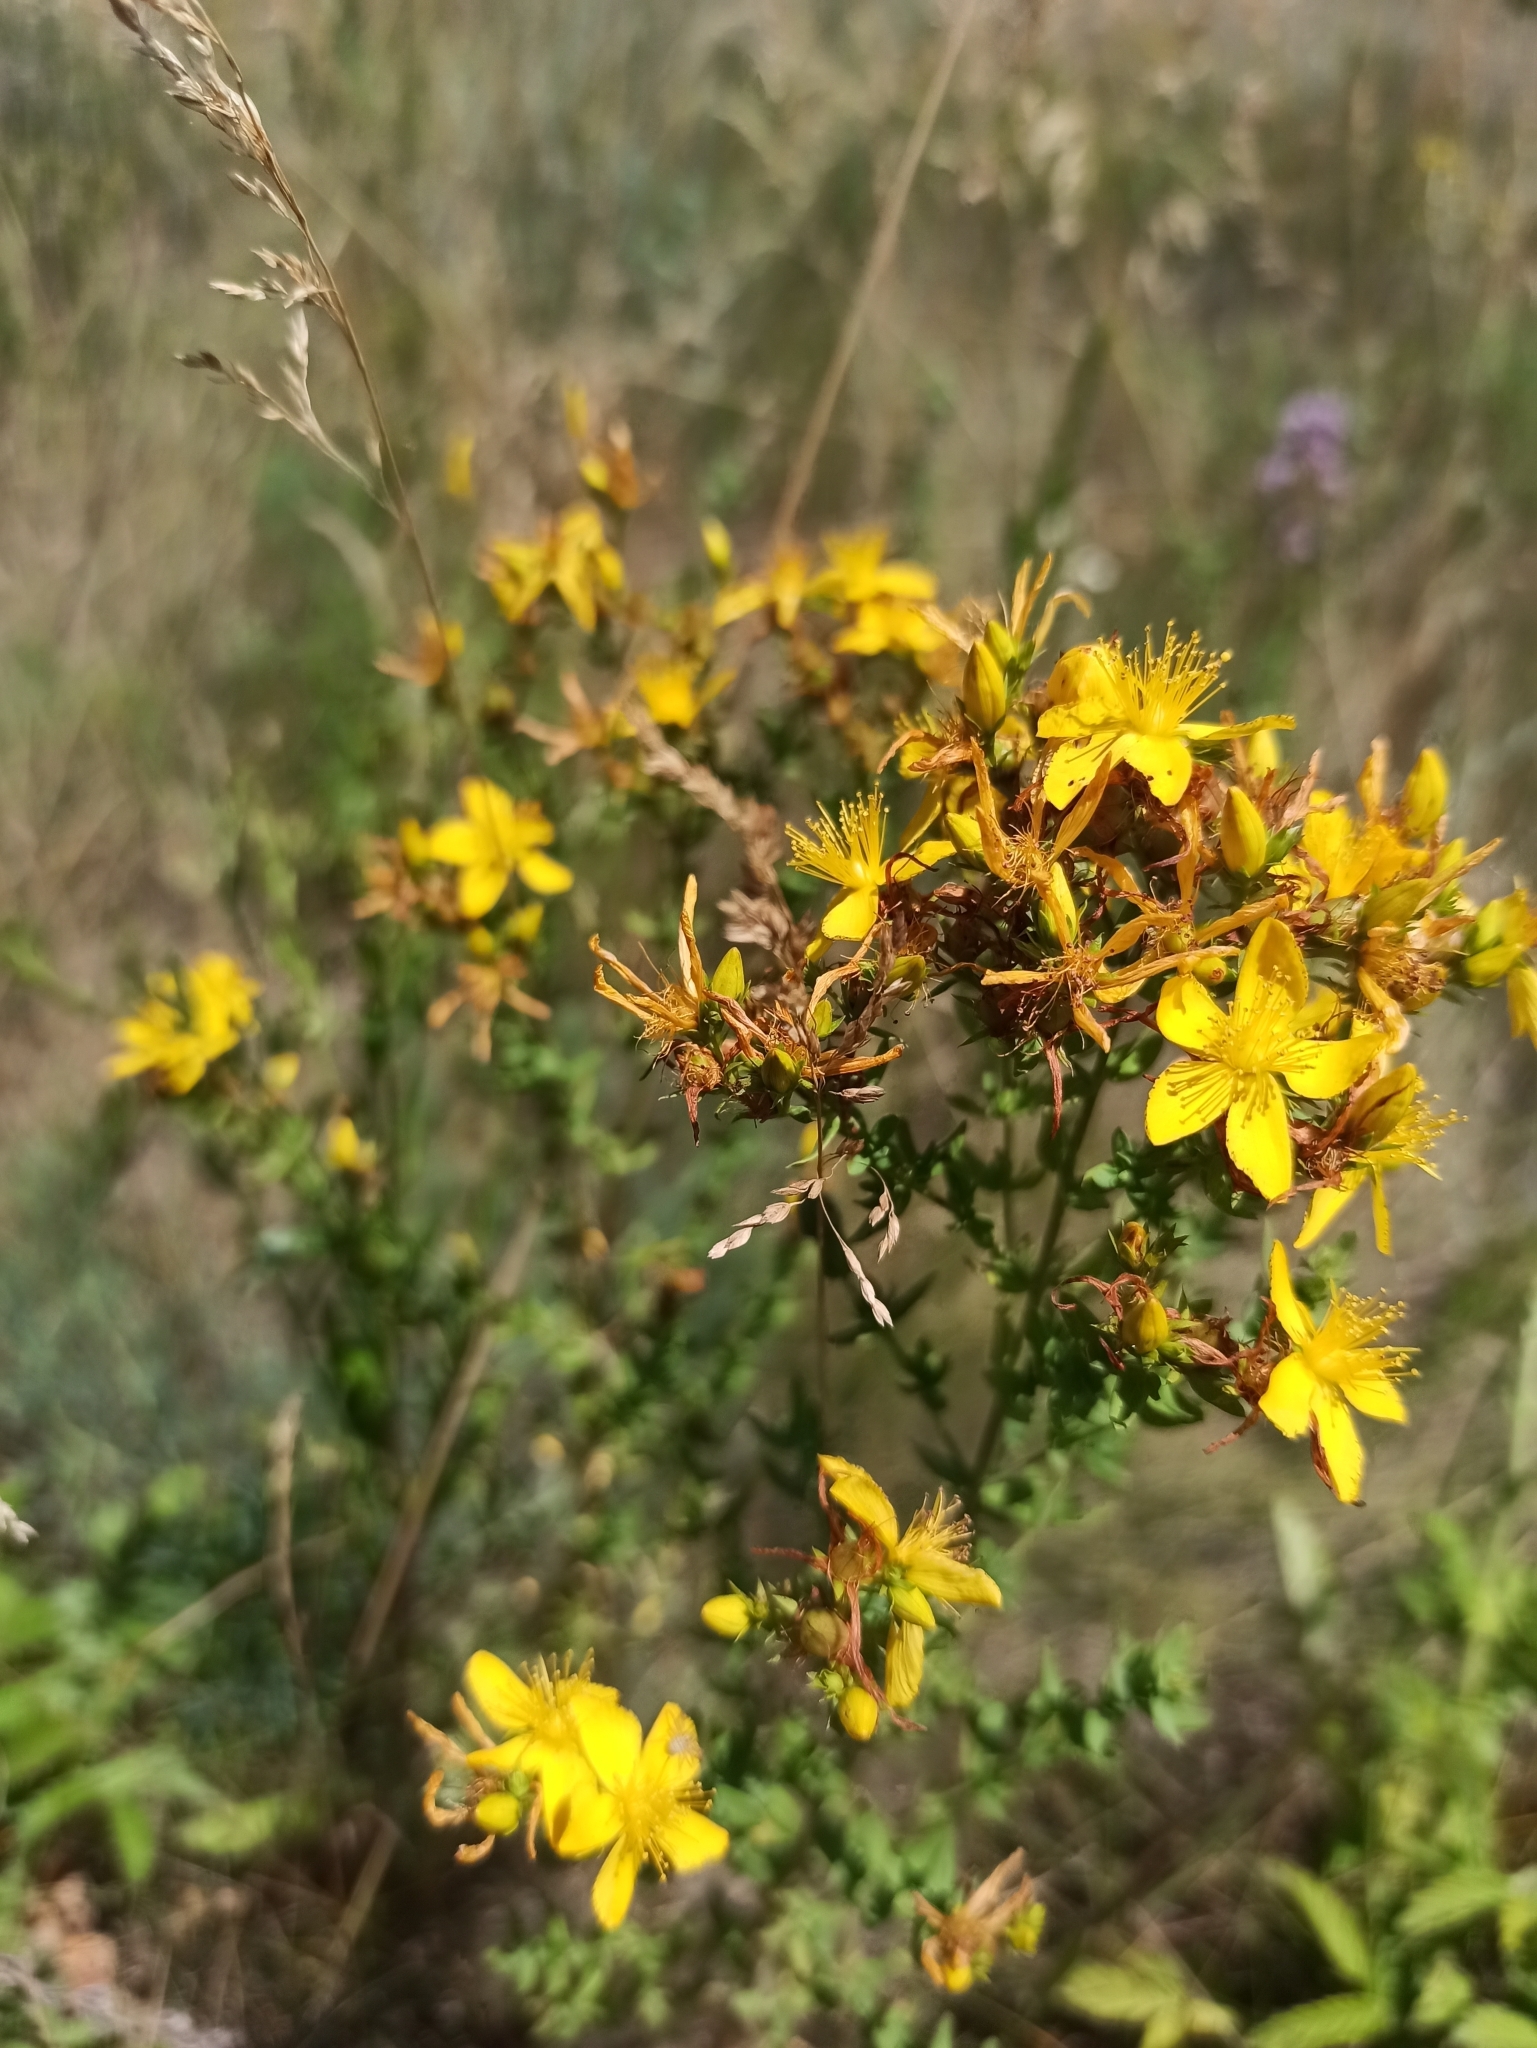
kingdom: Plantae
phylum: Tracheophyta
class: Magnoliopsida
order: Malpighiales
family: Hypericaceae
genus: Hypericum
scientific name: Hypericum perforatum
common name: Common st. johnswort
